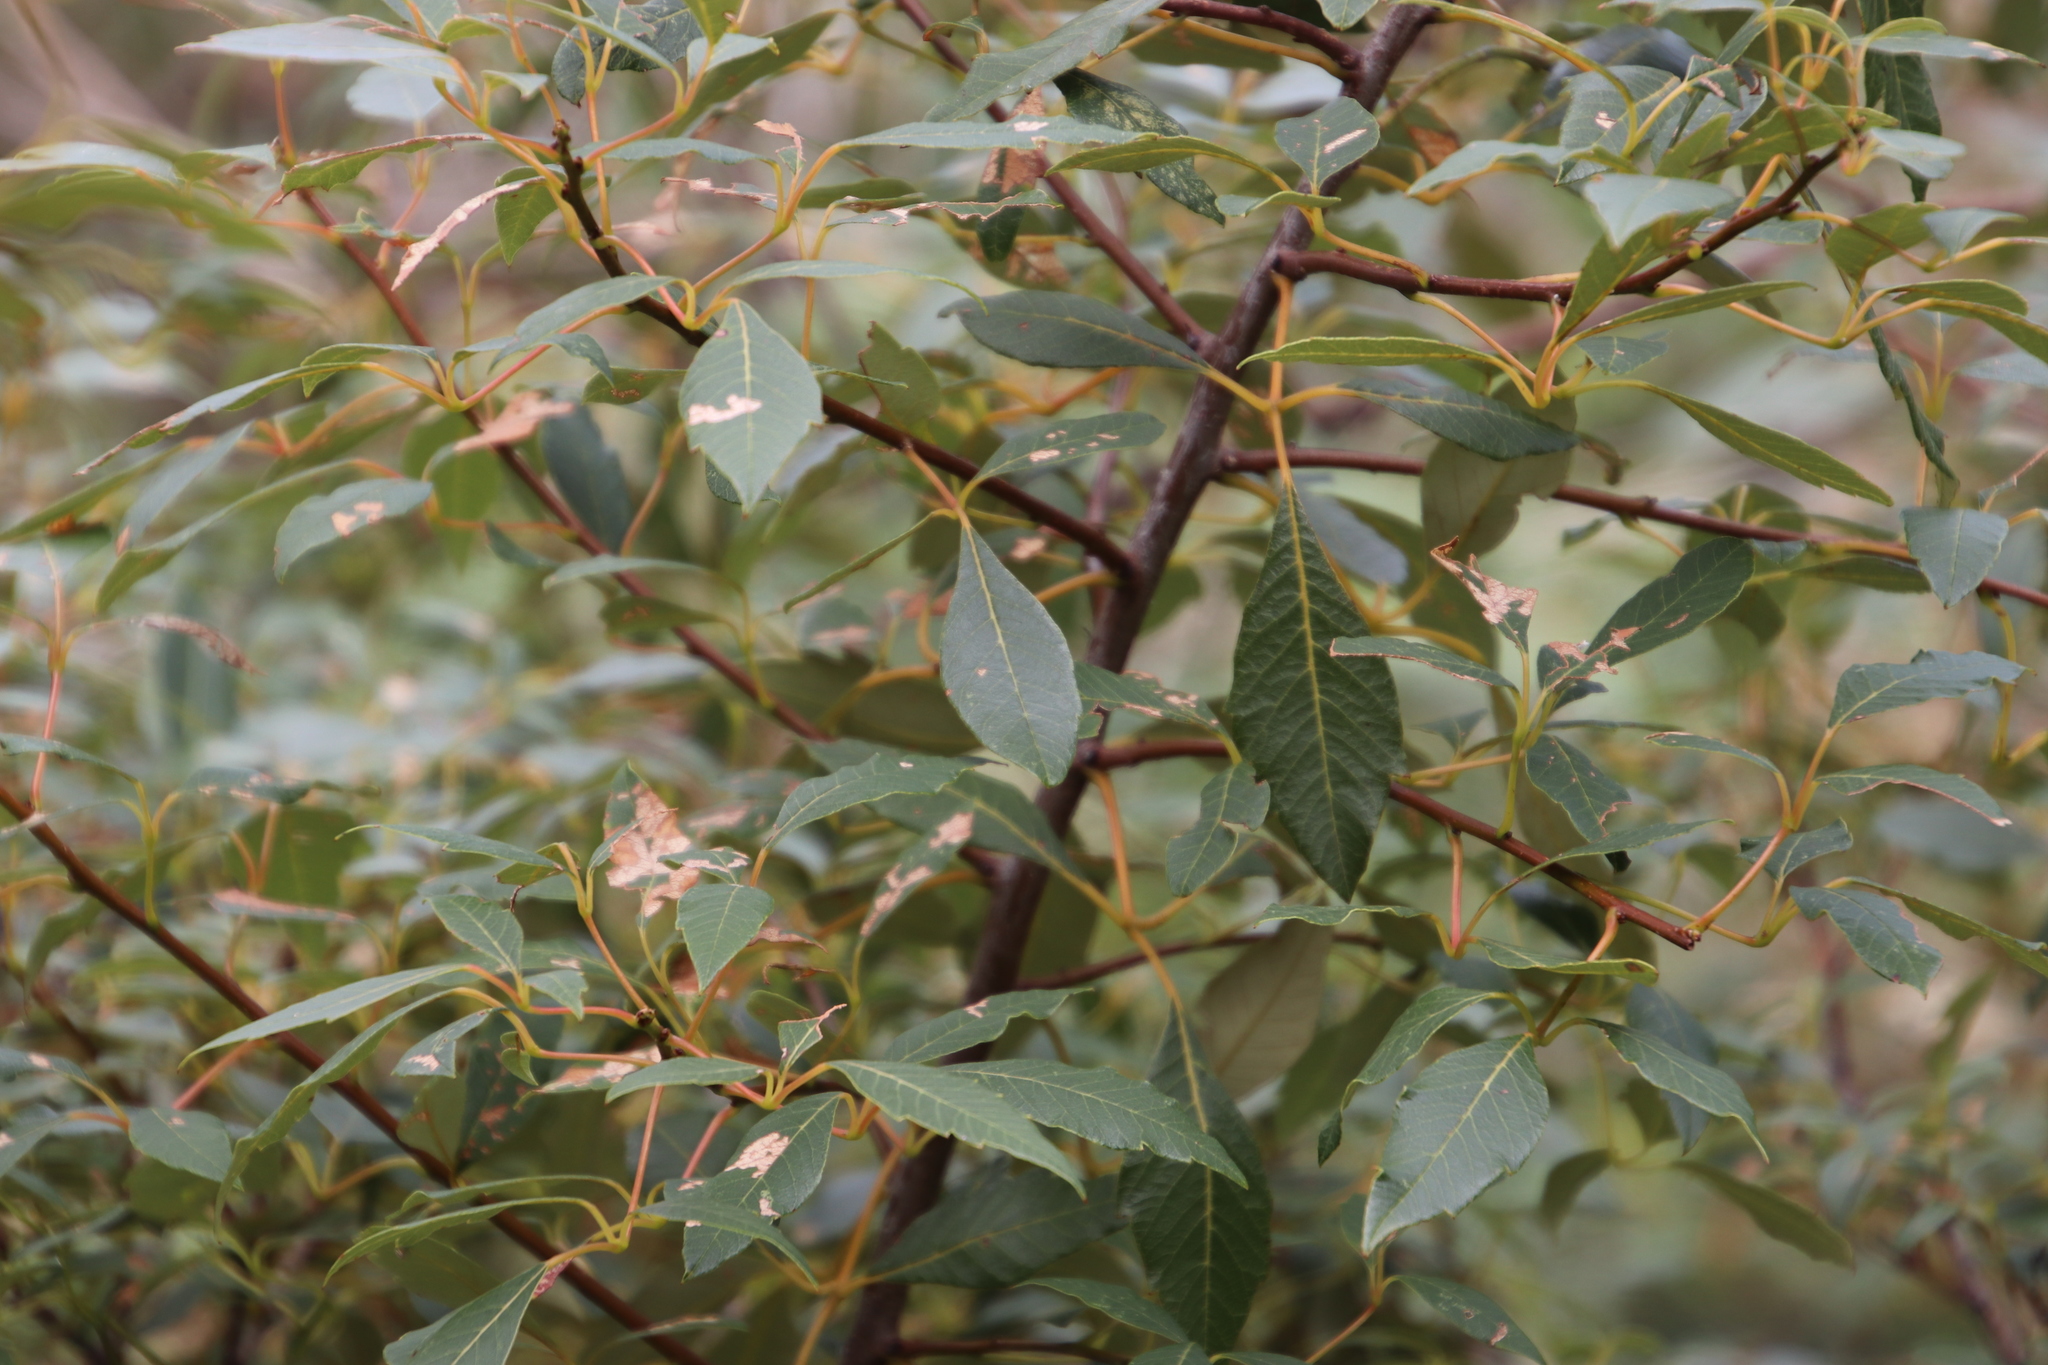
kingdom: Plantae
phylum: Tracheophyta
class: Magnoliopsida
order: Sapindales
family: Anacardiaceae
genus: Searsia
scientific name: Searsia tomentosa
